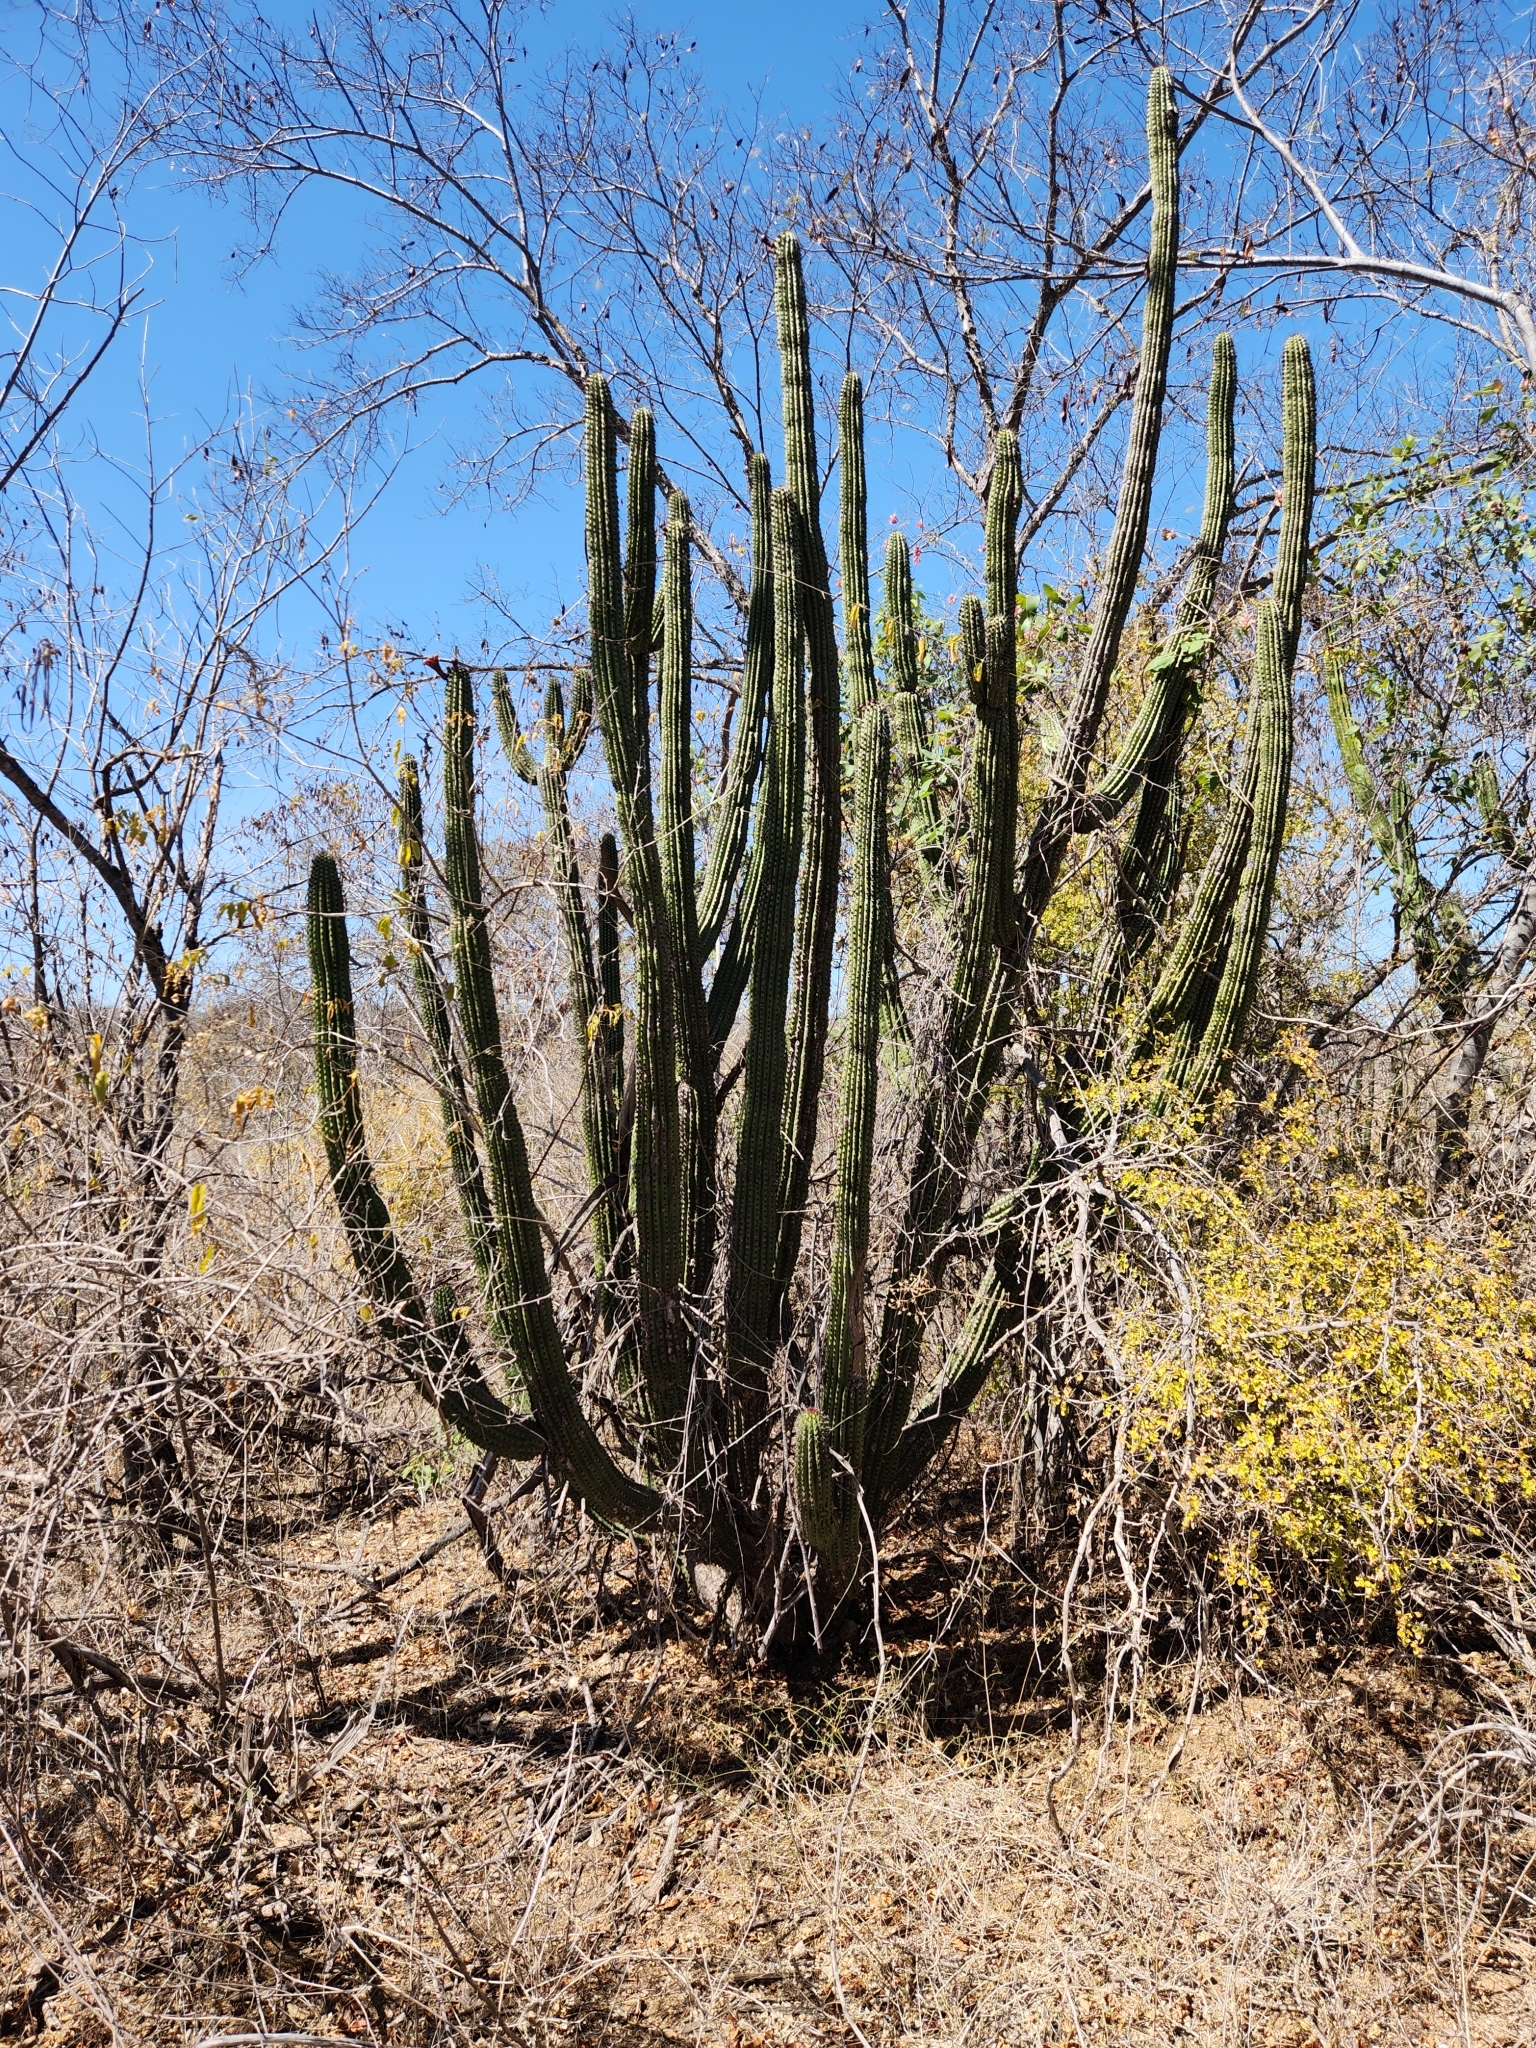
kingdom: Plantae
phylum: Tracheophyta
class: Magnoliopsida
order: Caryophyllales
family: Cactaceae
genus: Pachycereus
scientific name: Pachycereus pecten-aboriginum
